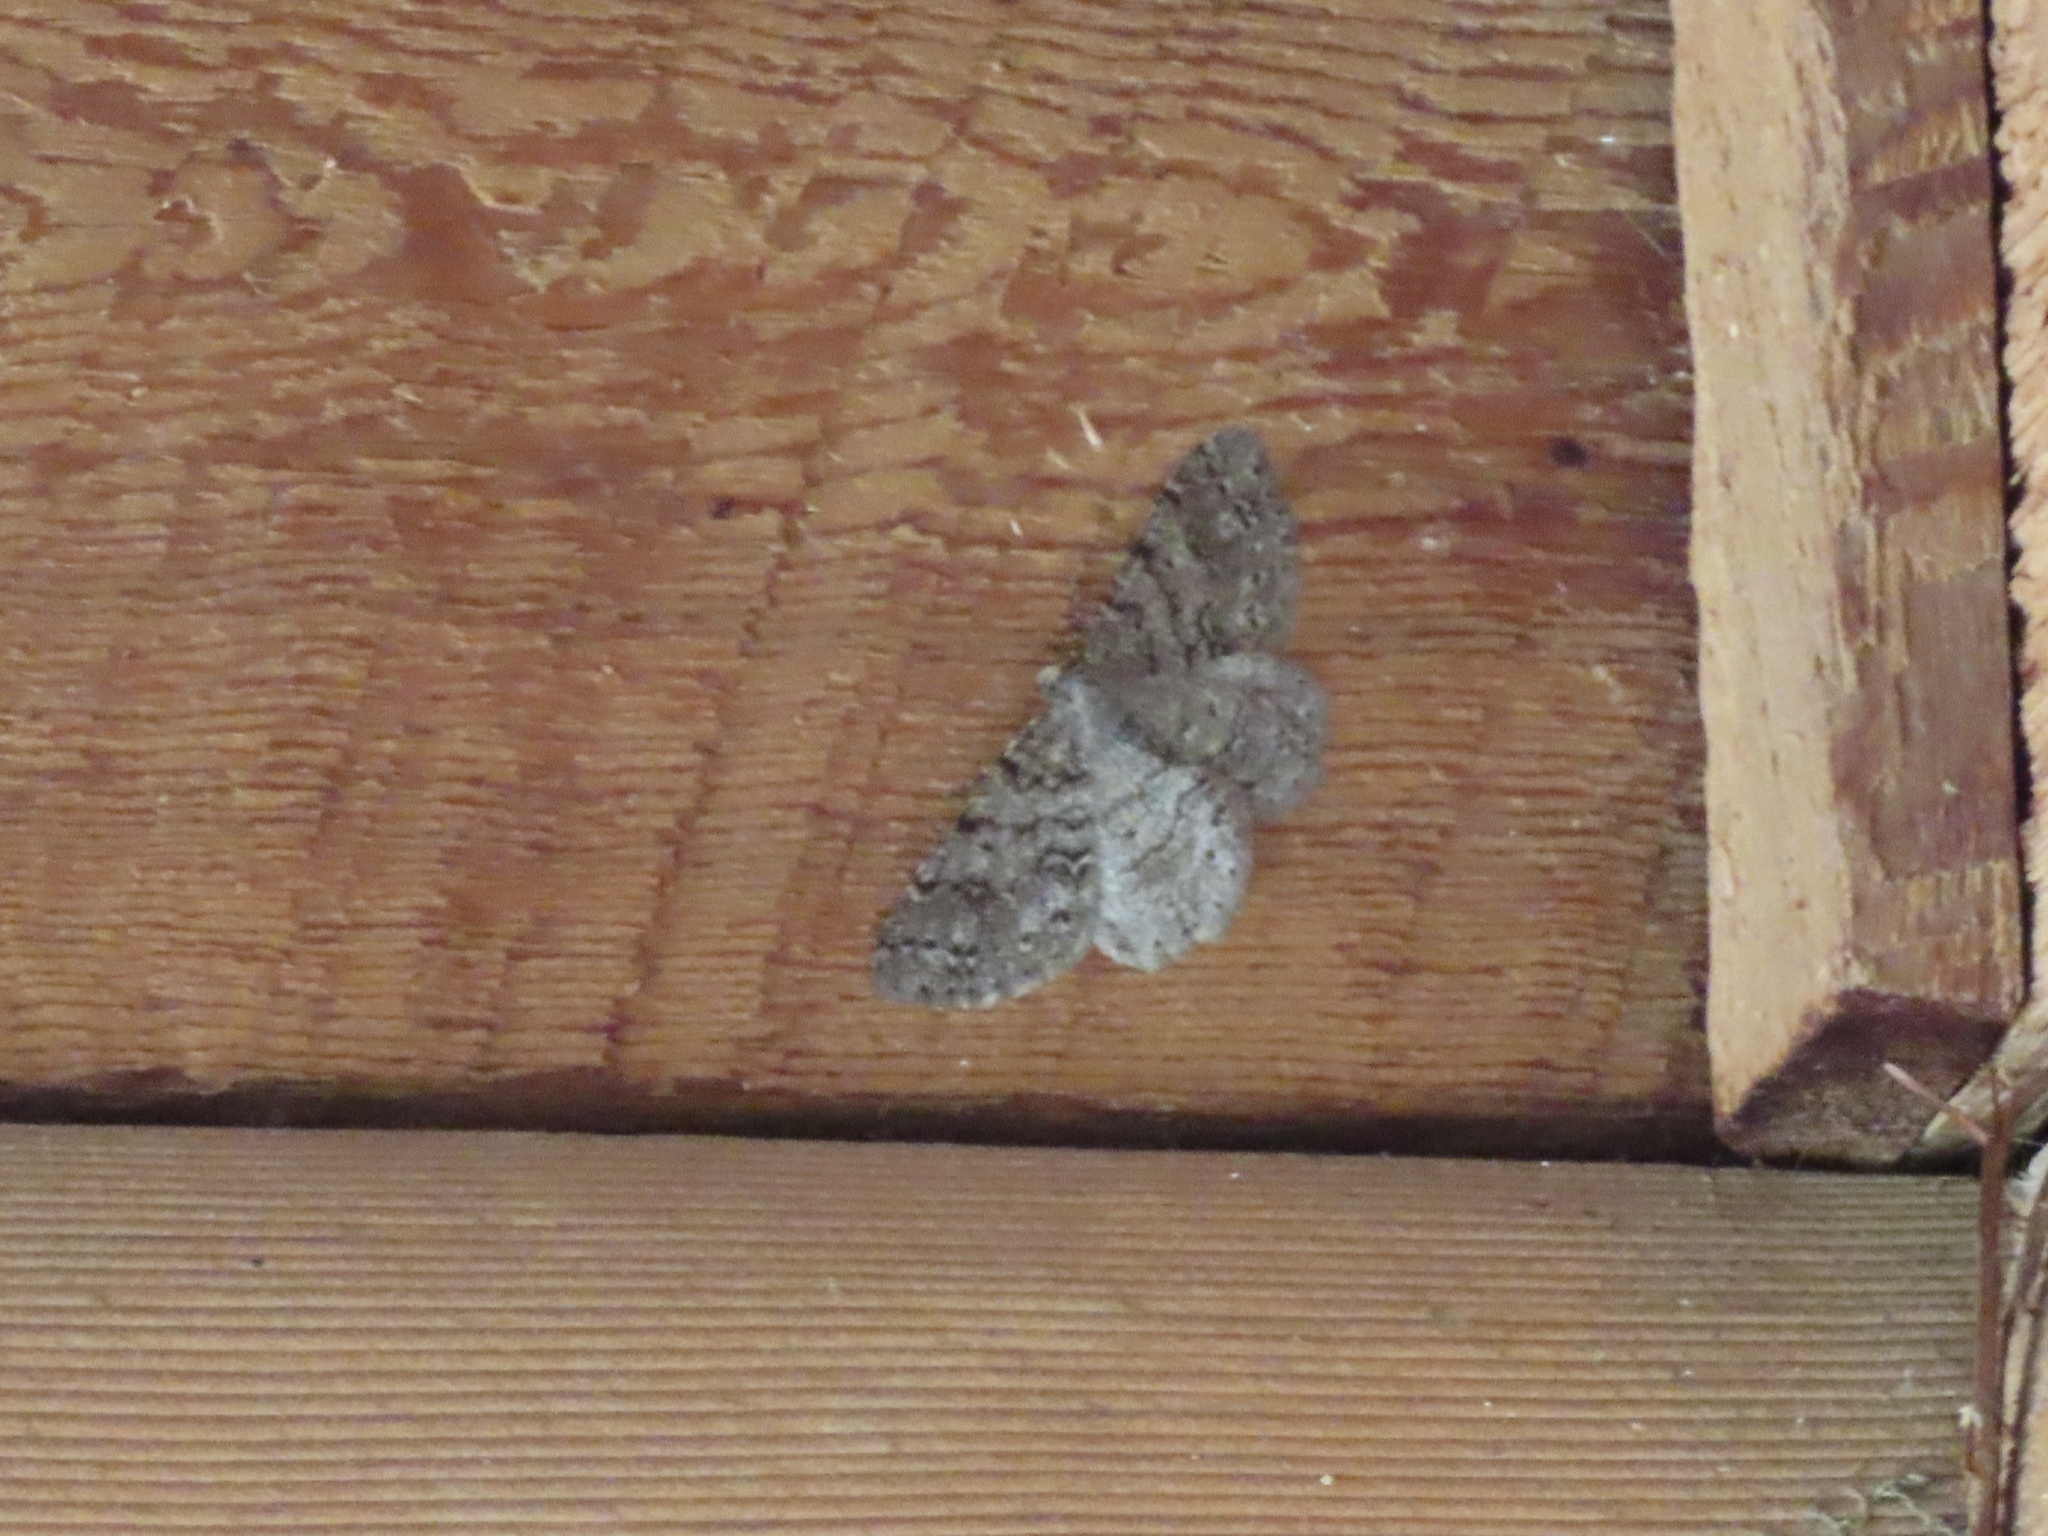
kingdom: Animalia
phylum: Arthropoda
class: Insecta
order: Lepidoptera
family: Geometridae
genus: Melanolophia
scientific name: Melanolophia imitata
